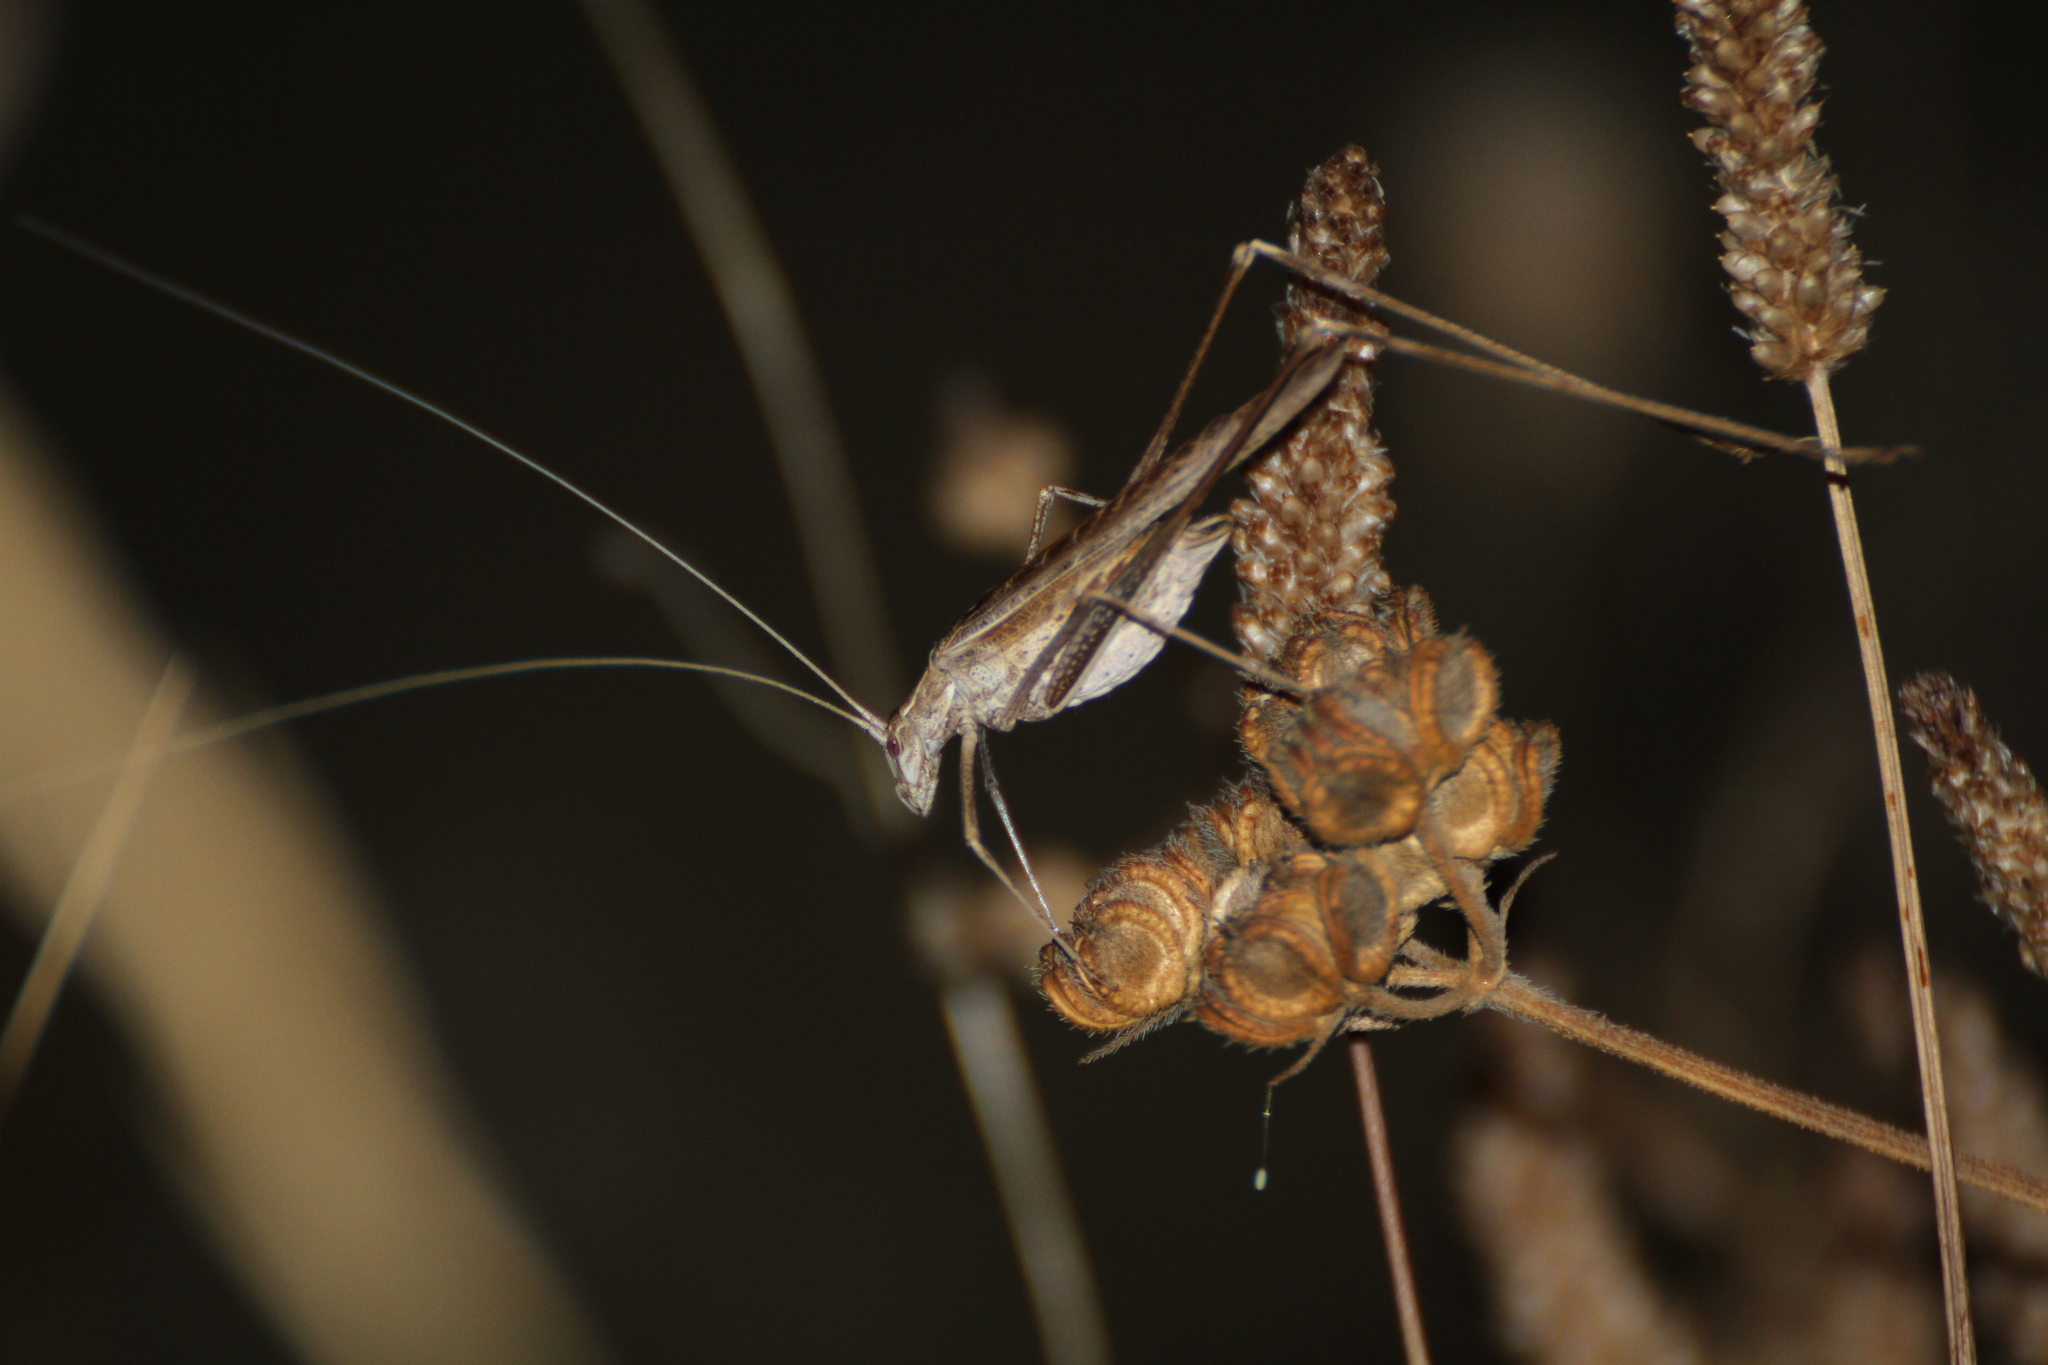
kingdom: Animalia
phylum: Arthropoda
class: Insecta
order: Orthoptera
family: Tettigoniidae
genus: Tylopsis
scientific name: Tylopsis lilifolia
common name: Lily bush-cricket
